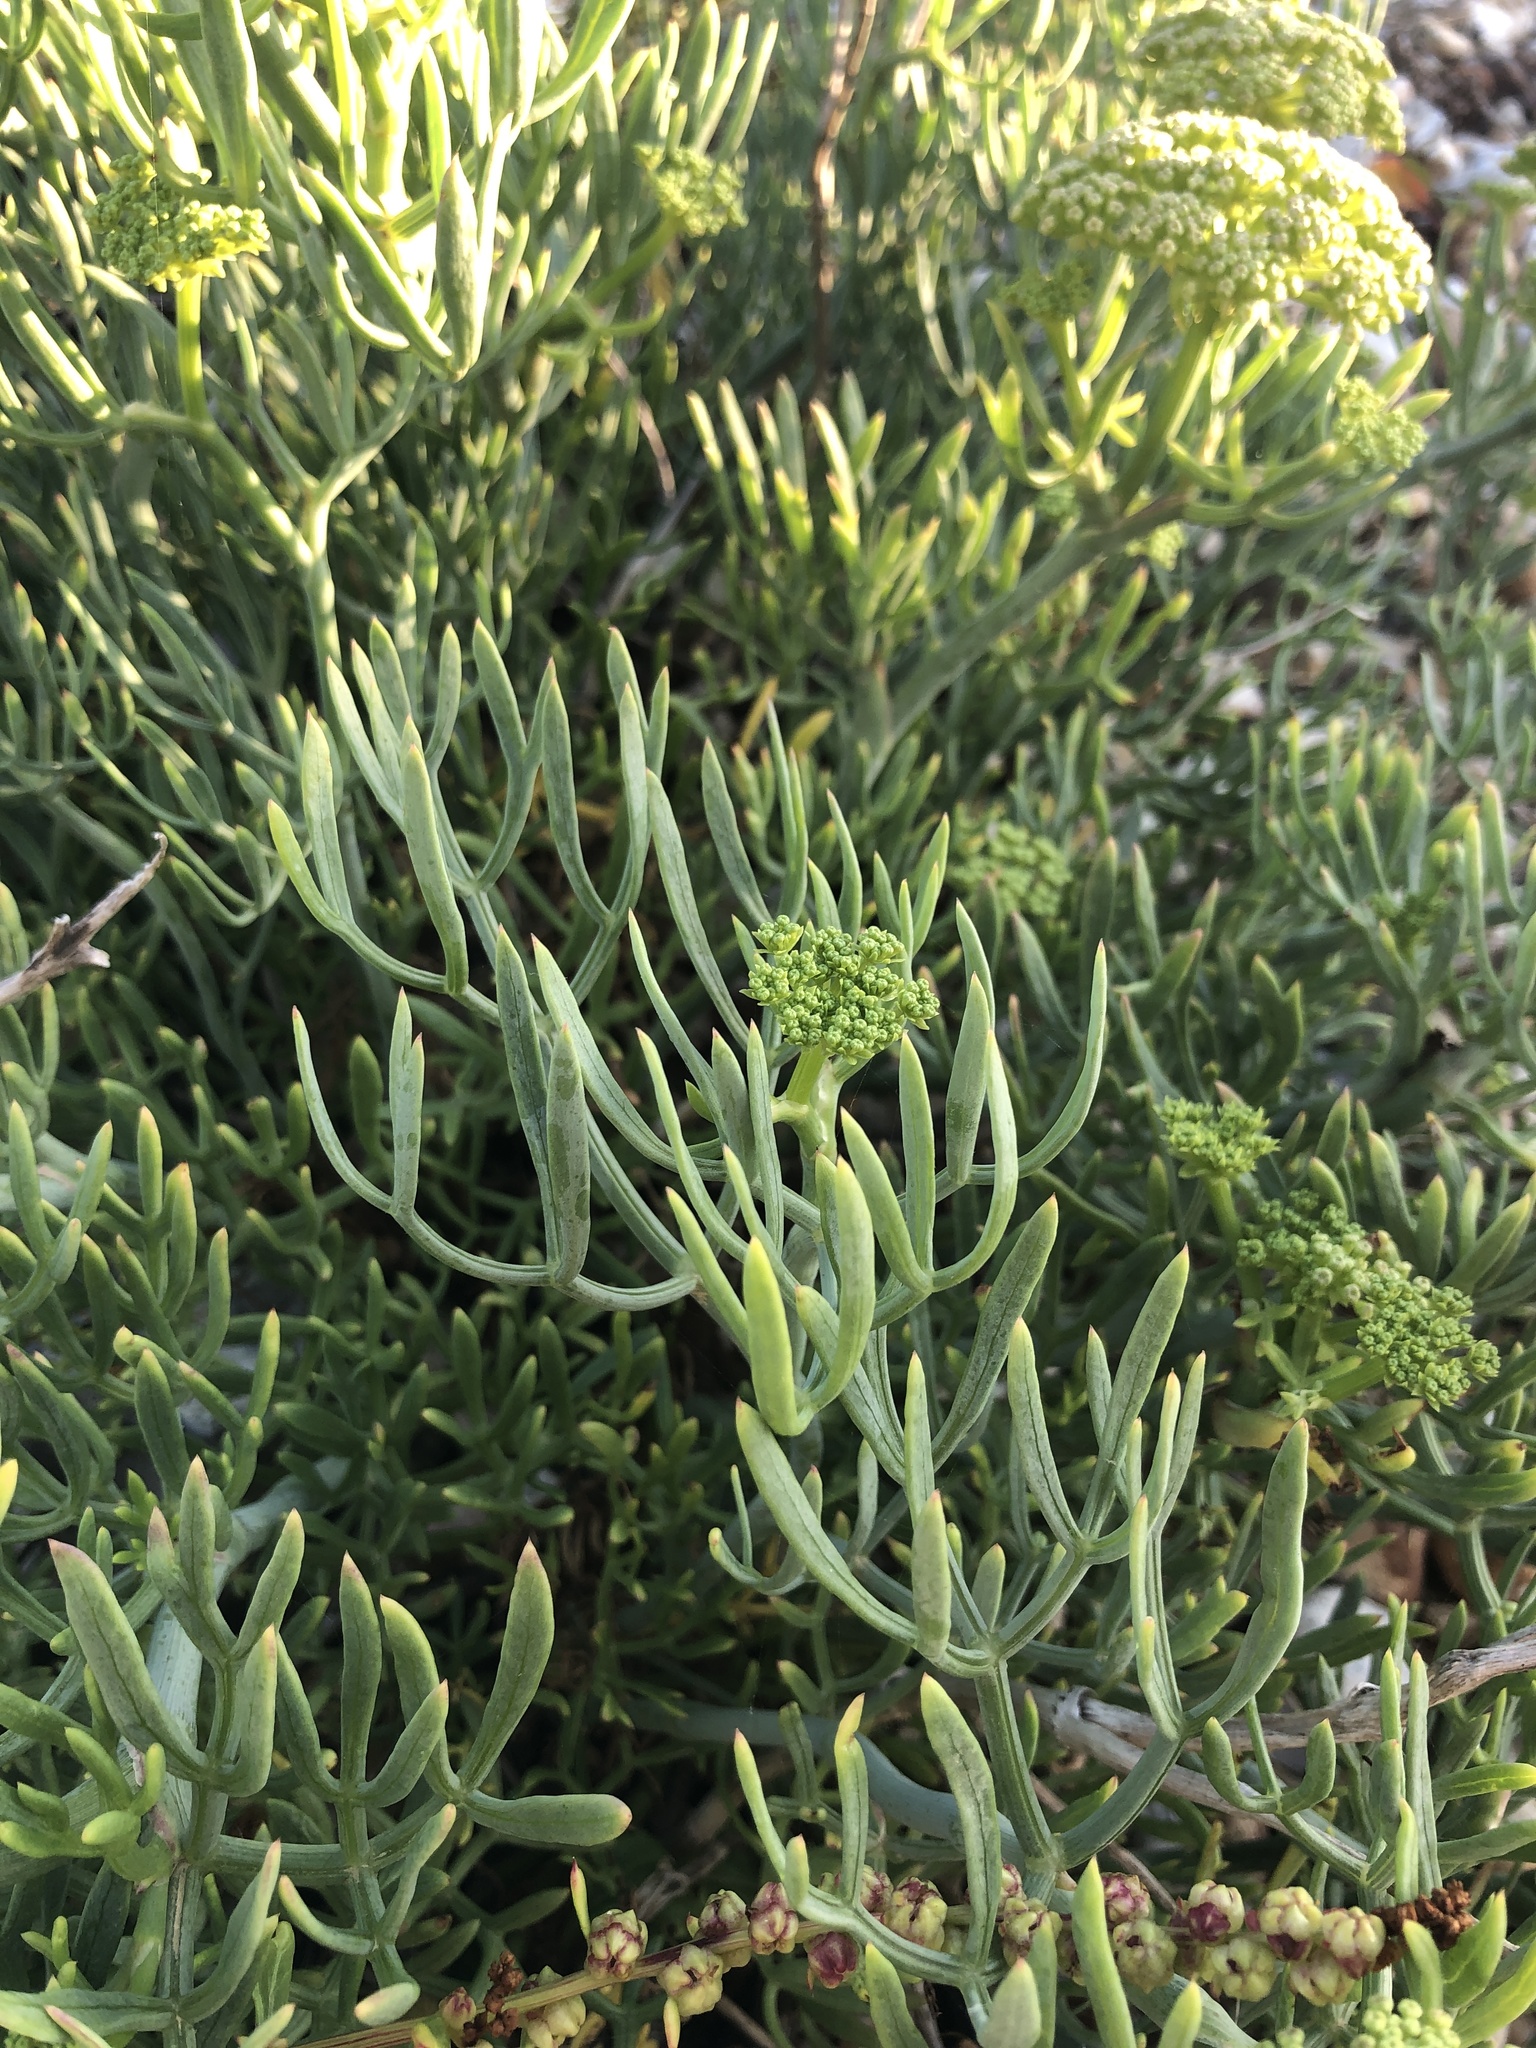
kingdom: Plantae
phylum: Tracheophyta
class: Magnoliopsida
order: Apiales
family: Apiaceae
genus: Crithmum
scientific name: Crithmum maritimum
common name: Rock samphire
